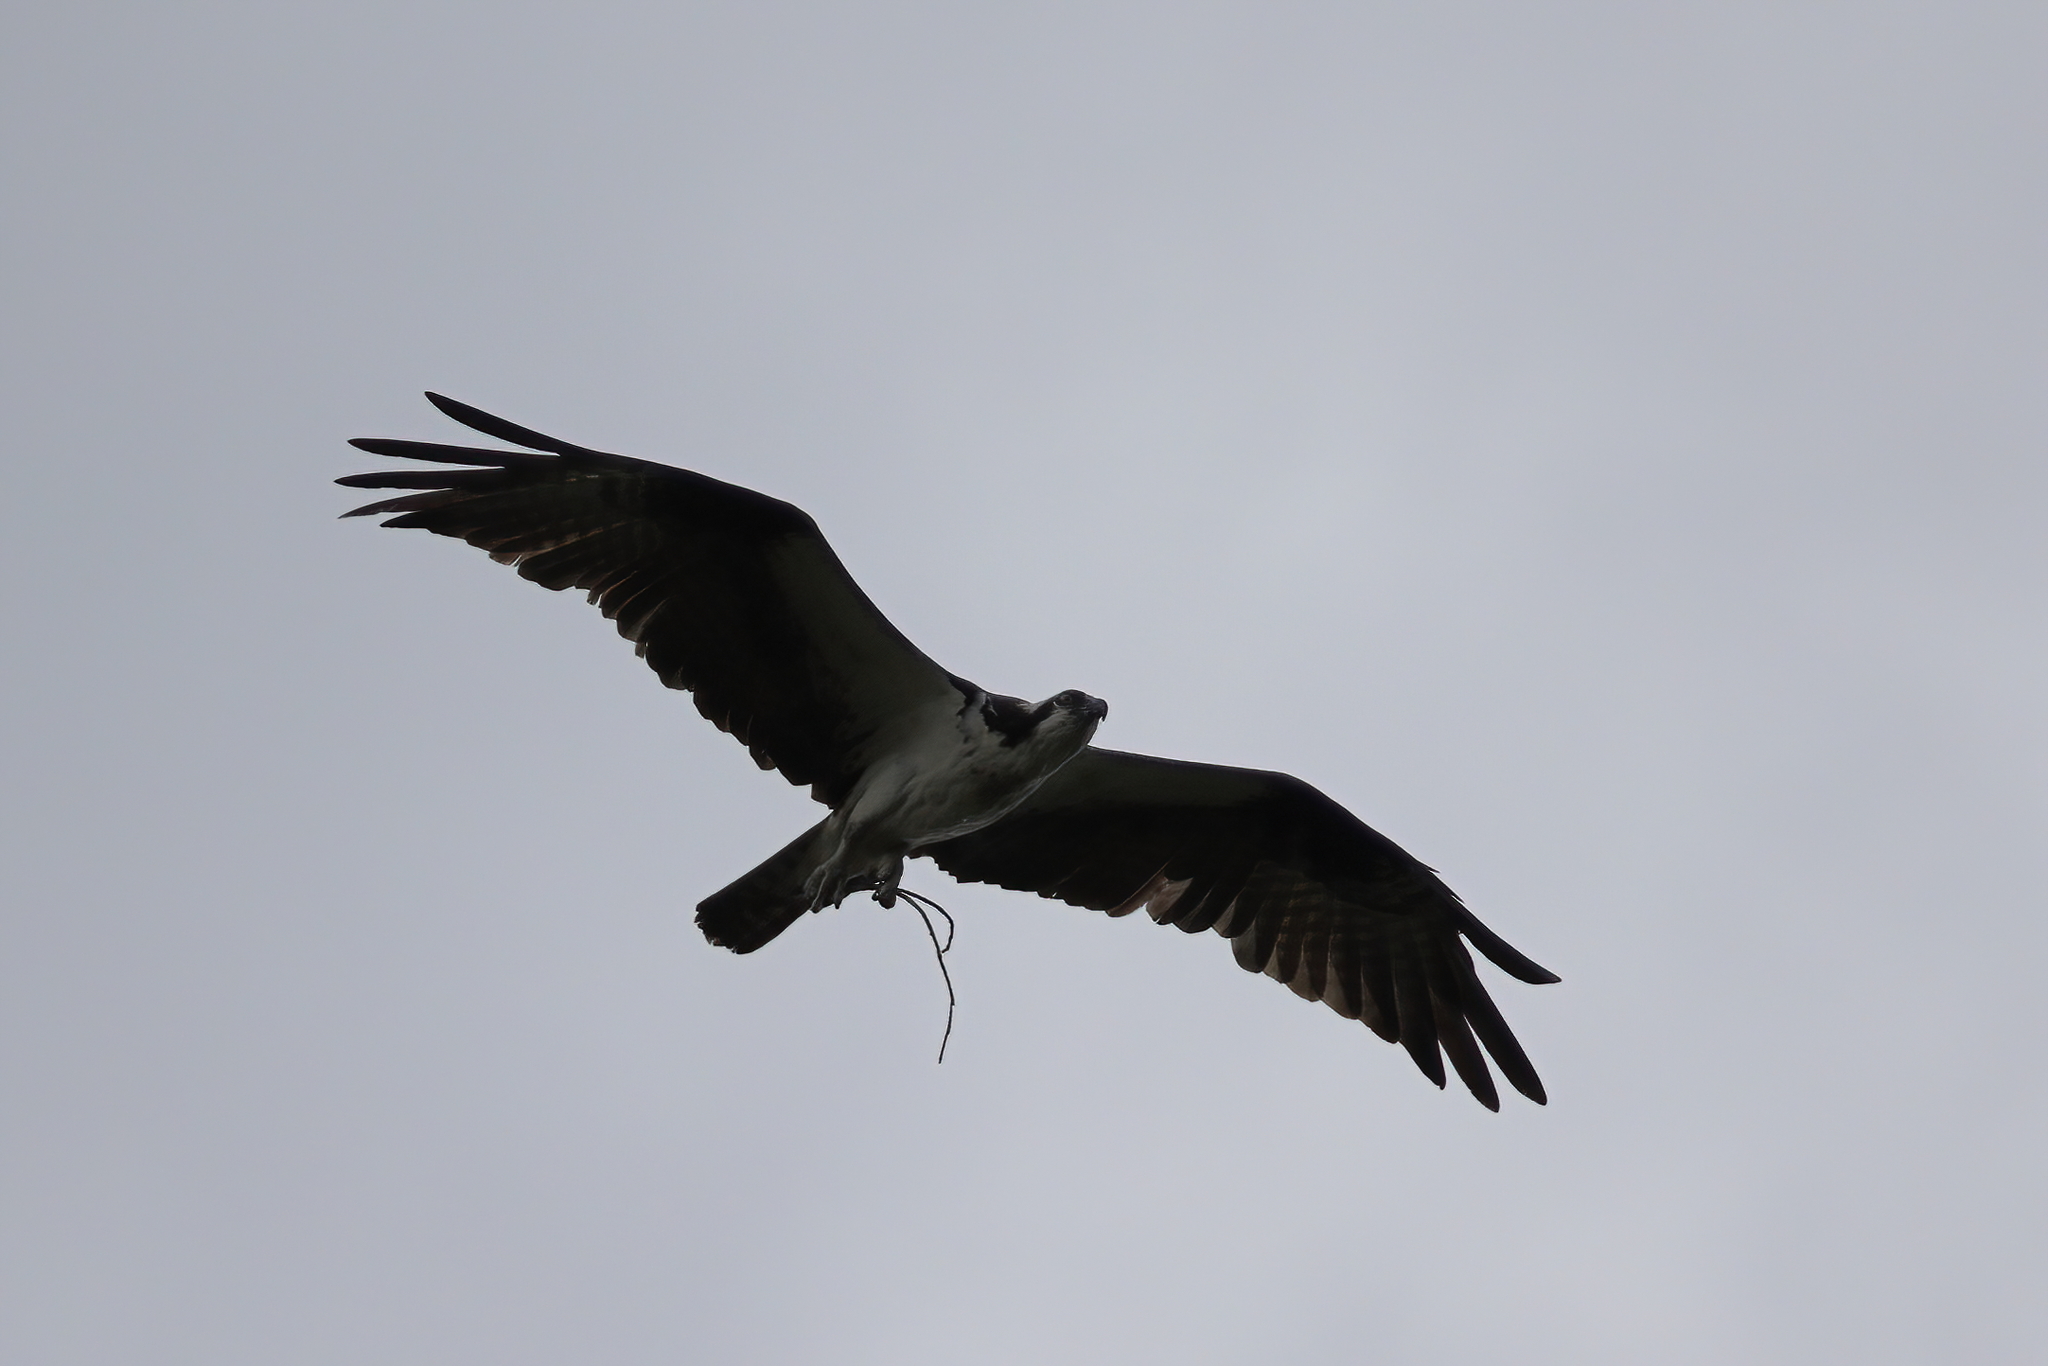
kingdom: Animalia
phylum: Chordata
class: Aves
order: Accipitriformes
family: Pandionidae
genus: Pandion
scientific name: Pandion haliaetus
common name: Osprey
